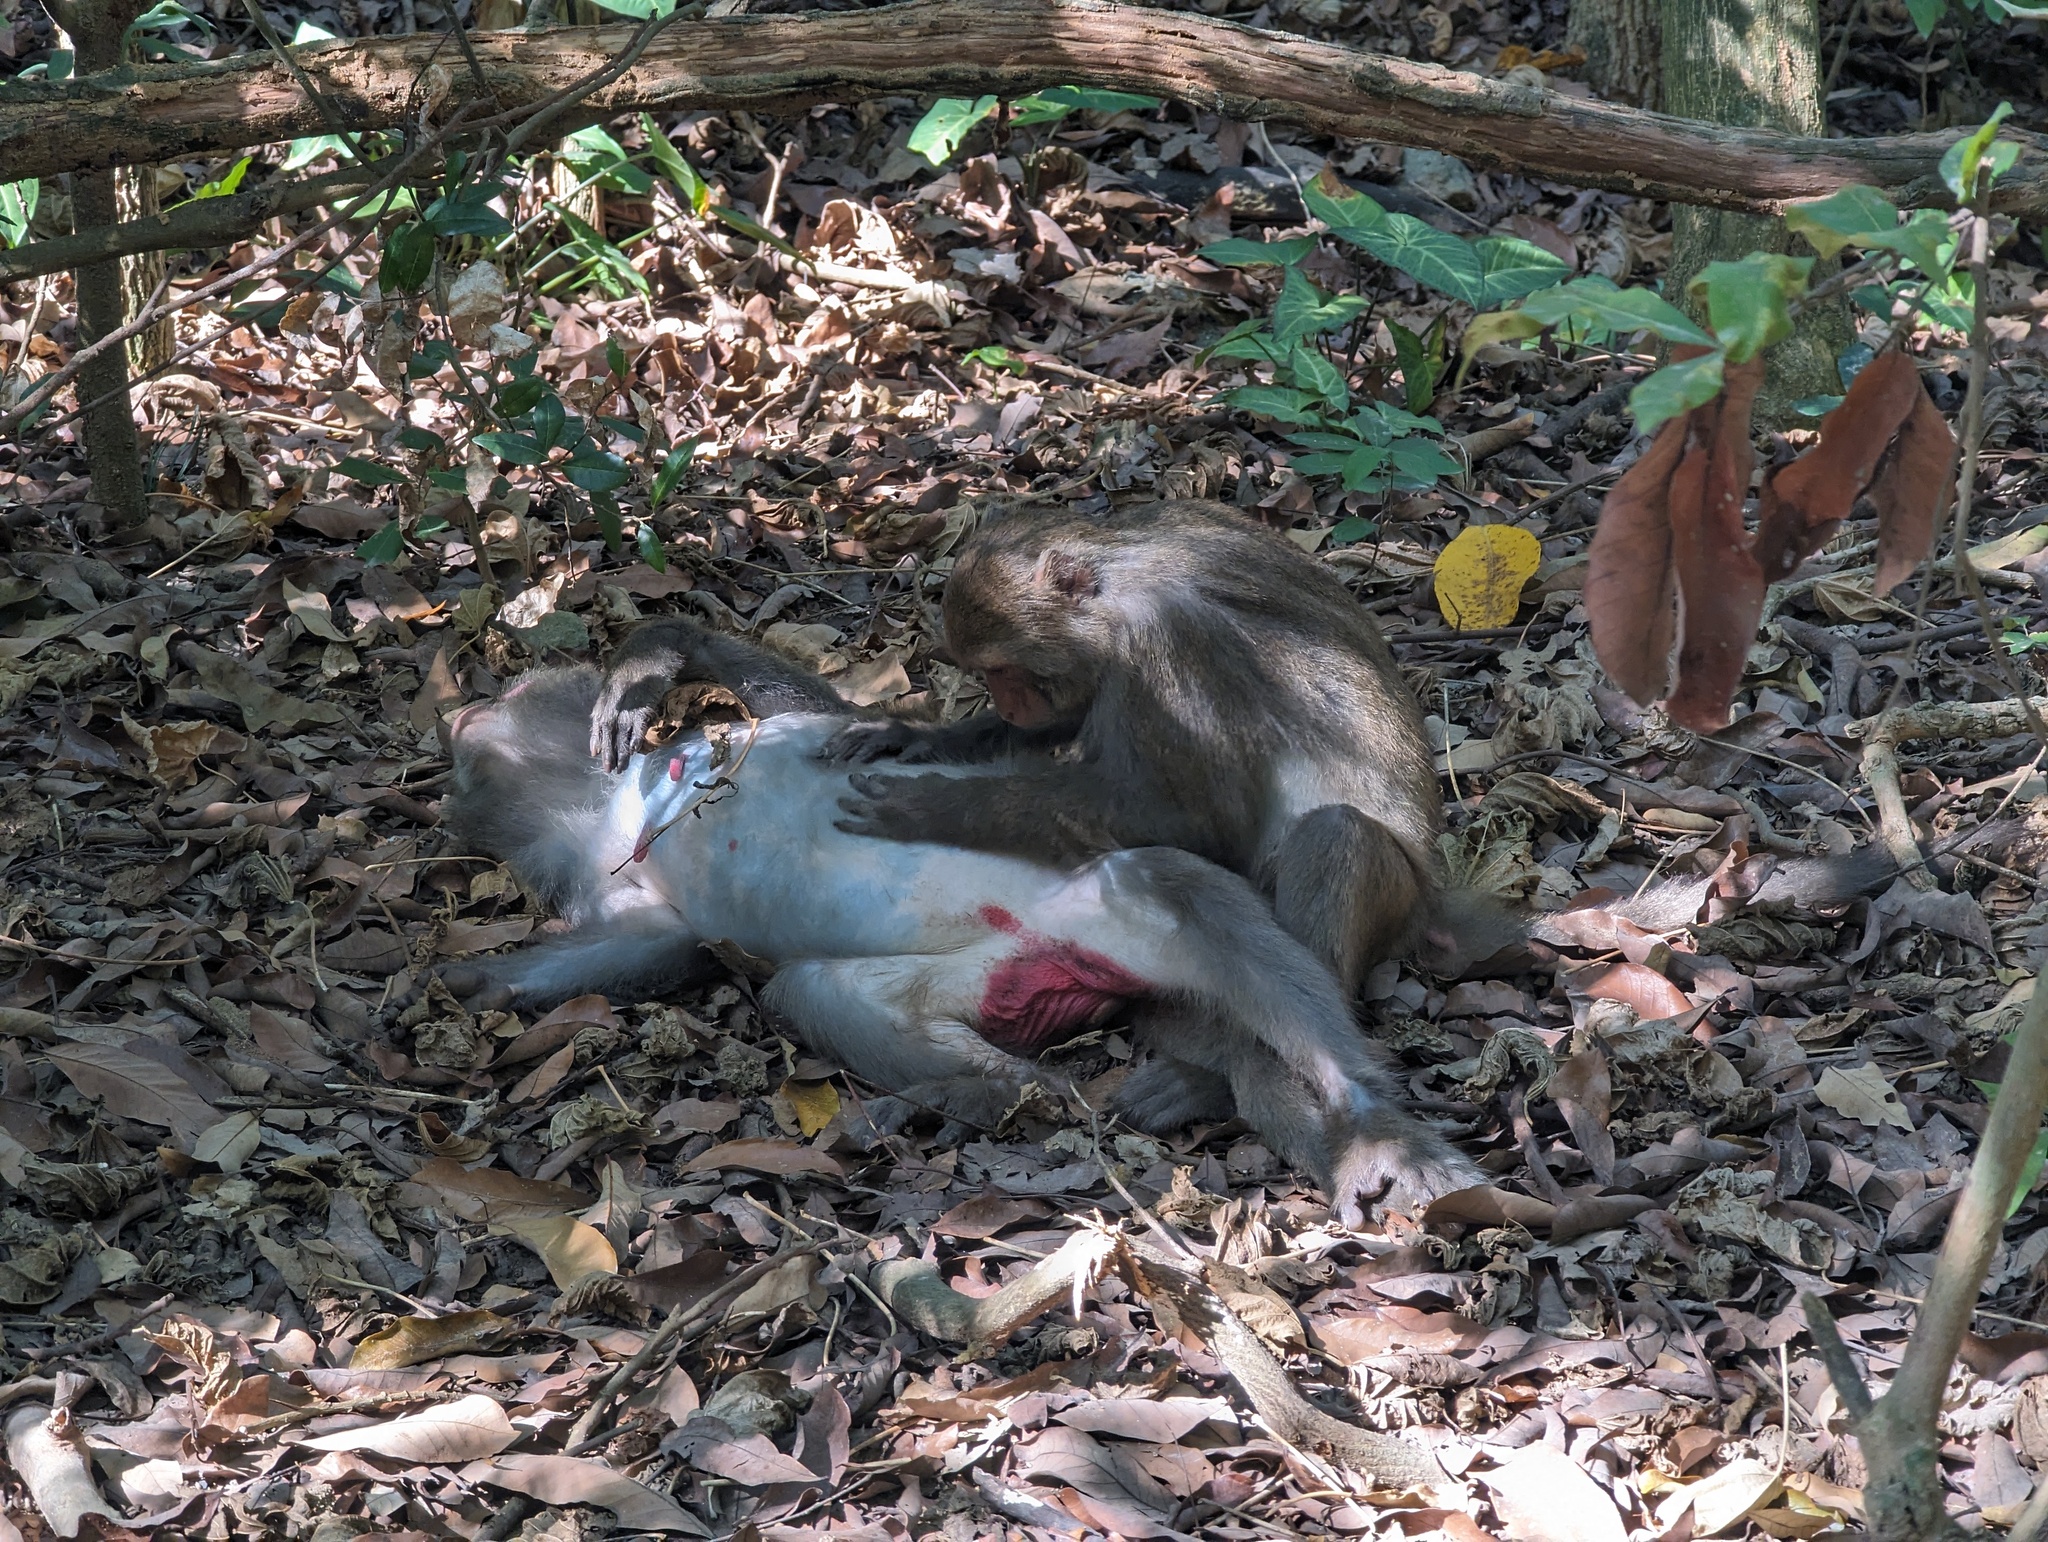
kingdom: Animalia
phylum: Chordata
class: Mammalia
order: Primates
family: Cercopithecidae
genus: Macaca
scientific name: Macaca cyclopis
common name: Formosan rock macaque
